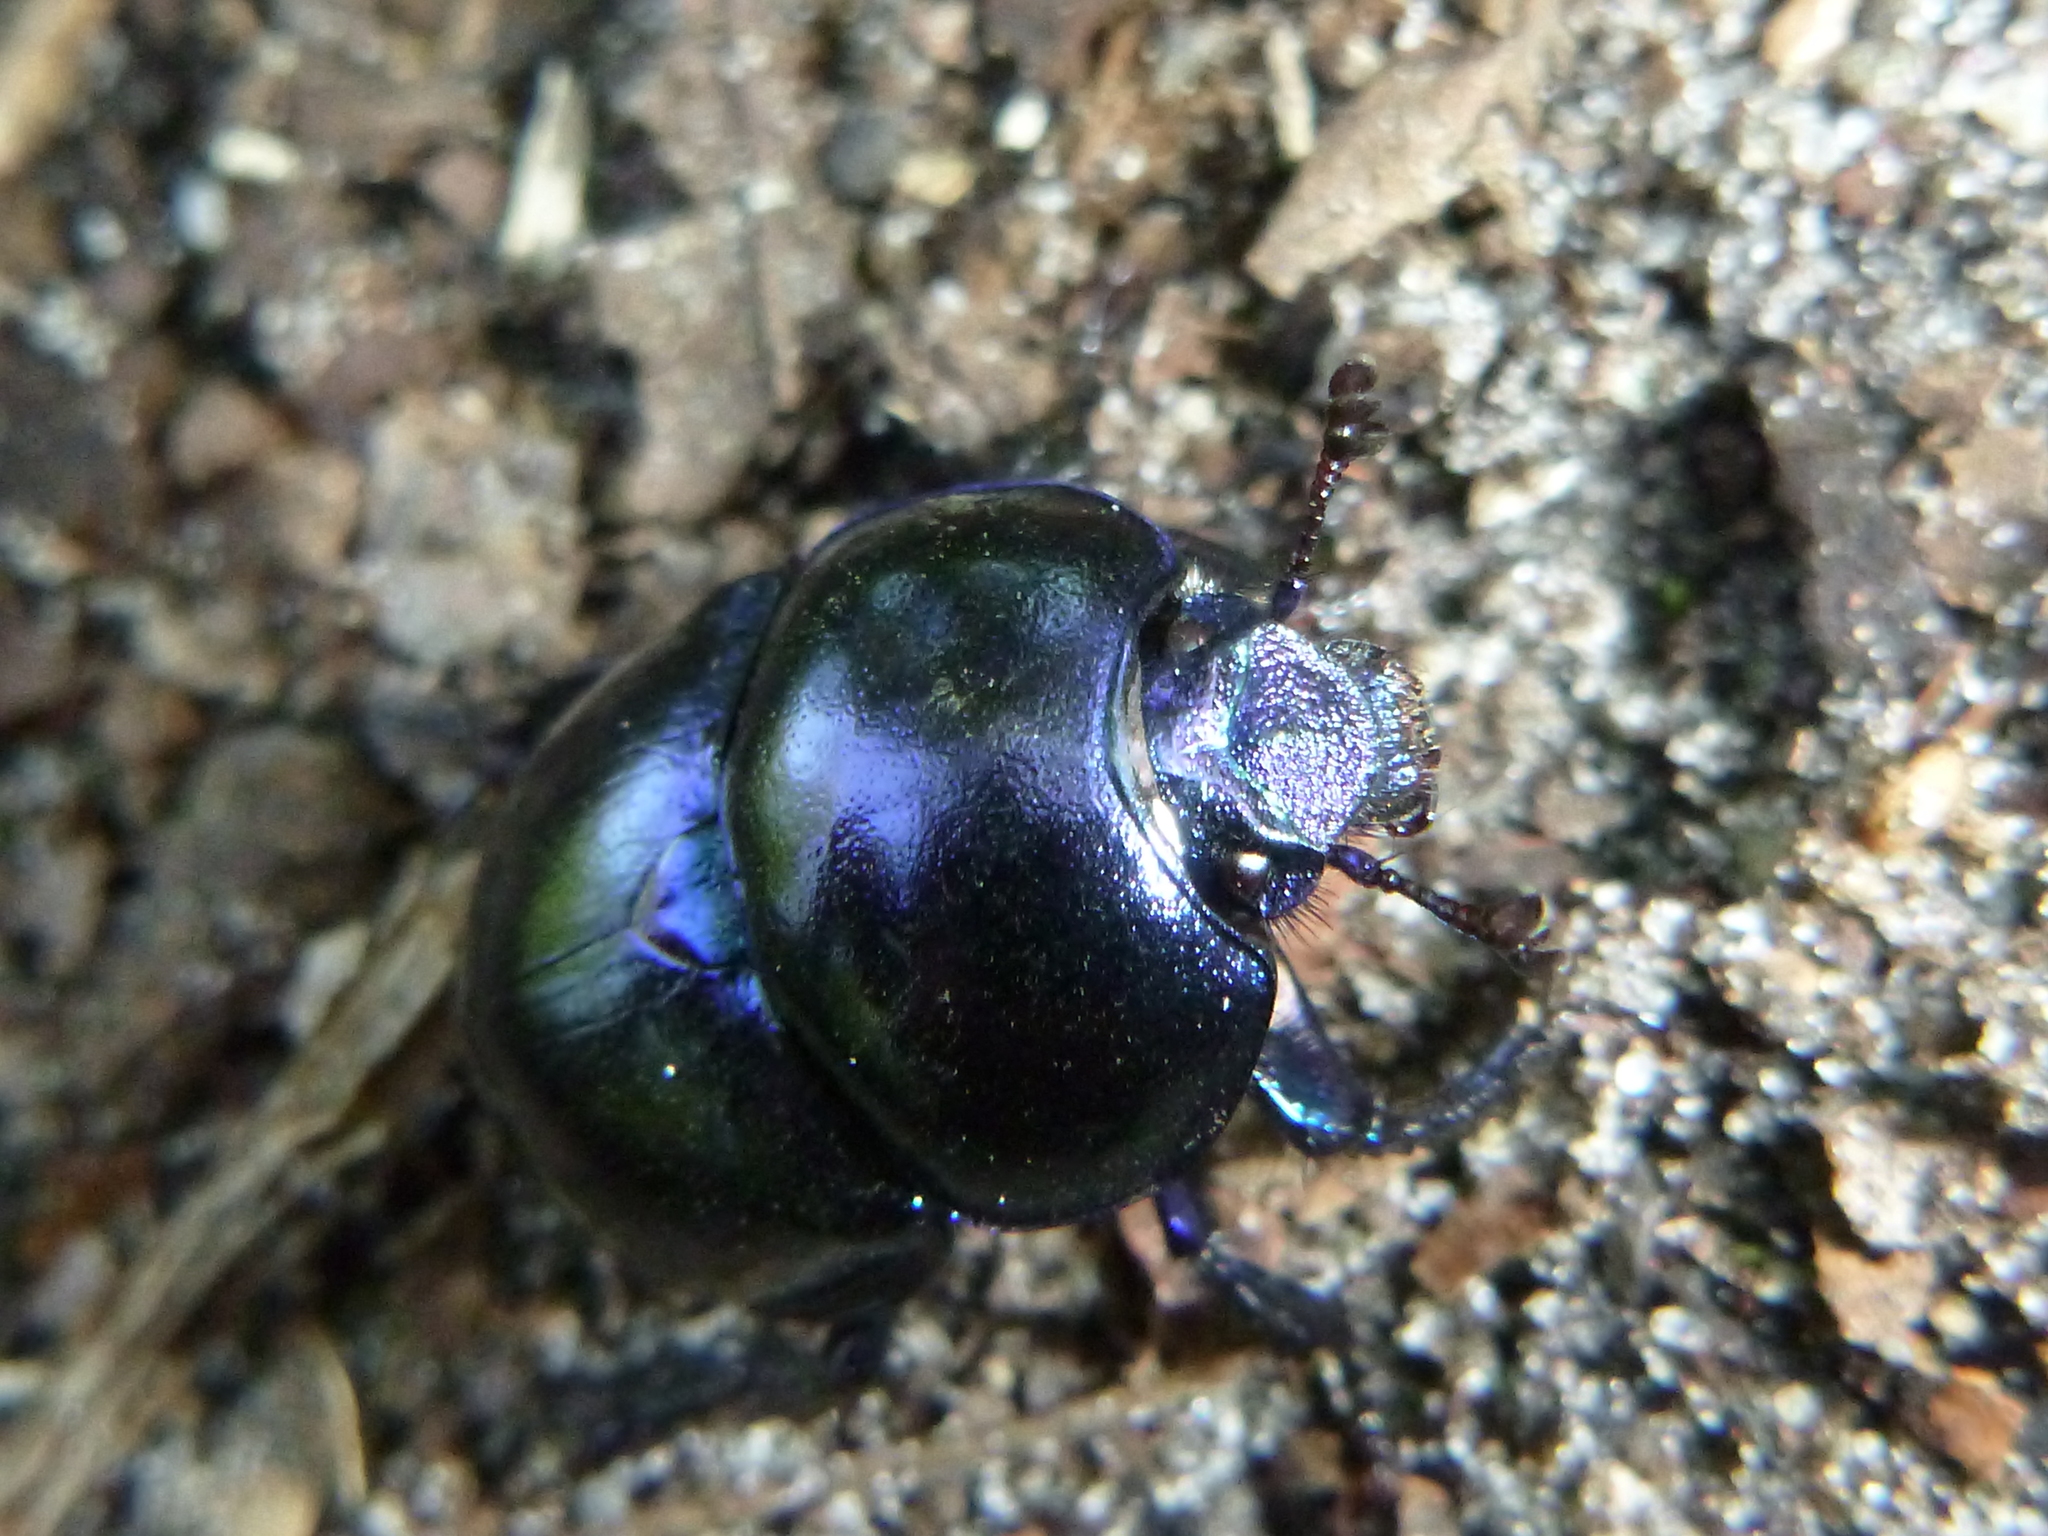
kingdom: Animalia
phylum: Arthropoda
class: Insecta
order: Coleoptera
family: Geotrupidae
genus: Trypocopris
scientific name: Trypocopris vernalis
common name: Spring dumbledor
